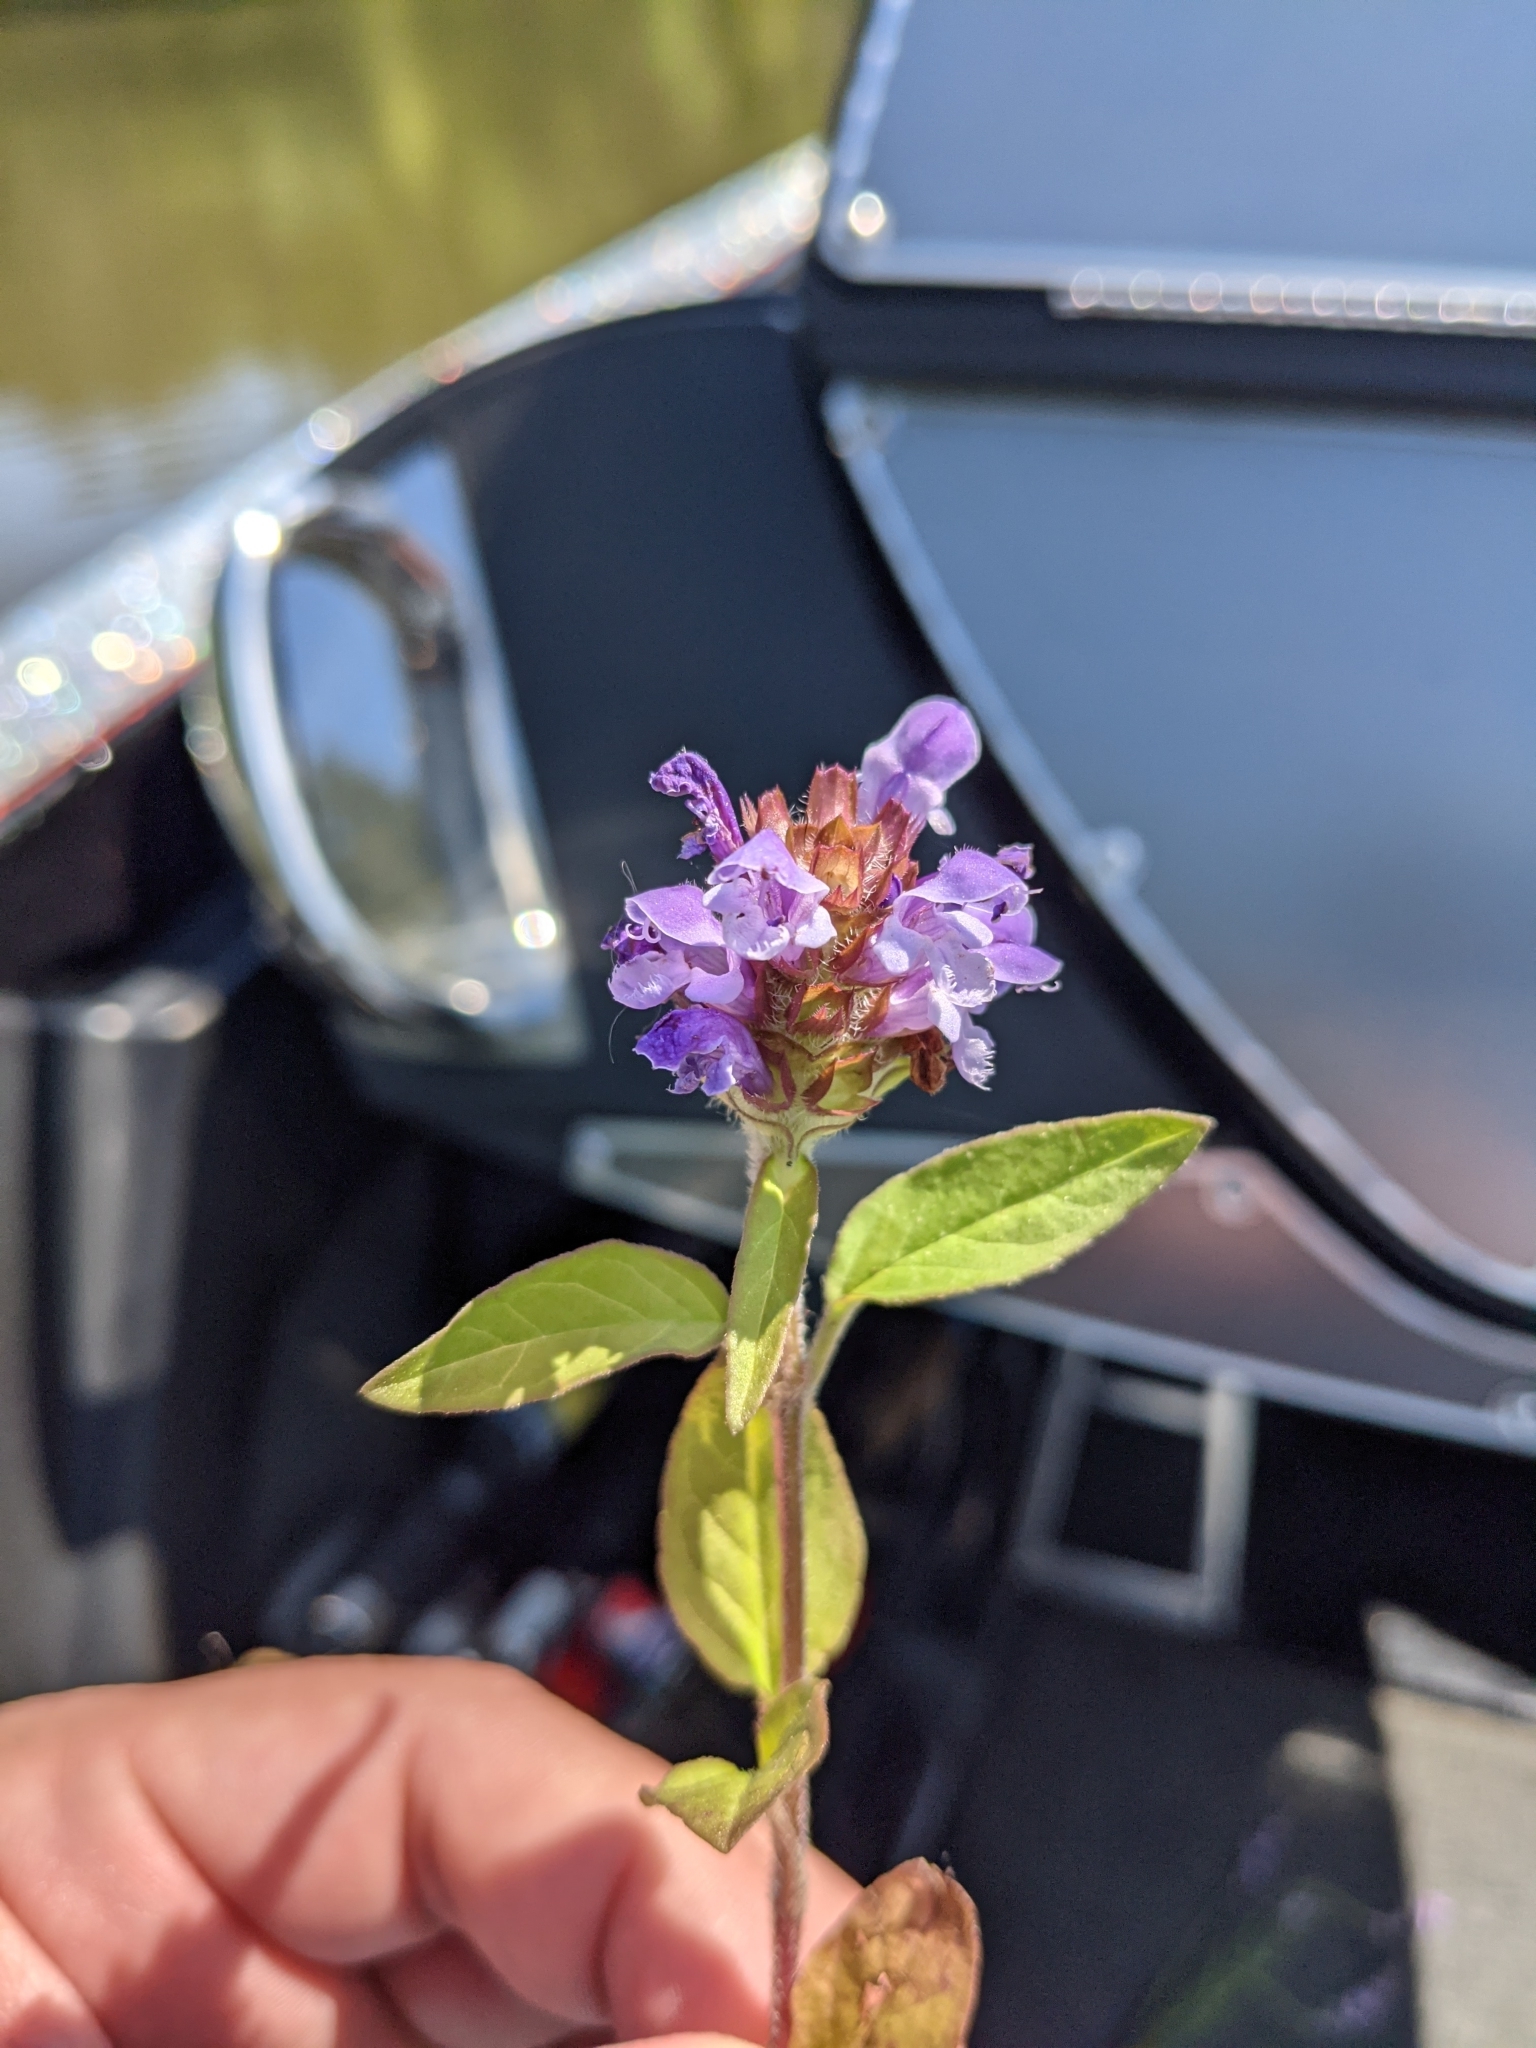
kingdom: Plantae
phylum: Tracheophyta
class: Magnoliopsida
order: Lamiales
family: Lamiaceae
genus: Prunella
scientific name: Prunella vulgaris
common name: Heal-all
